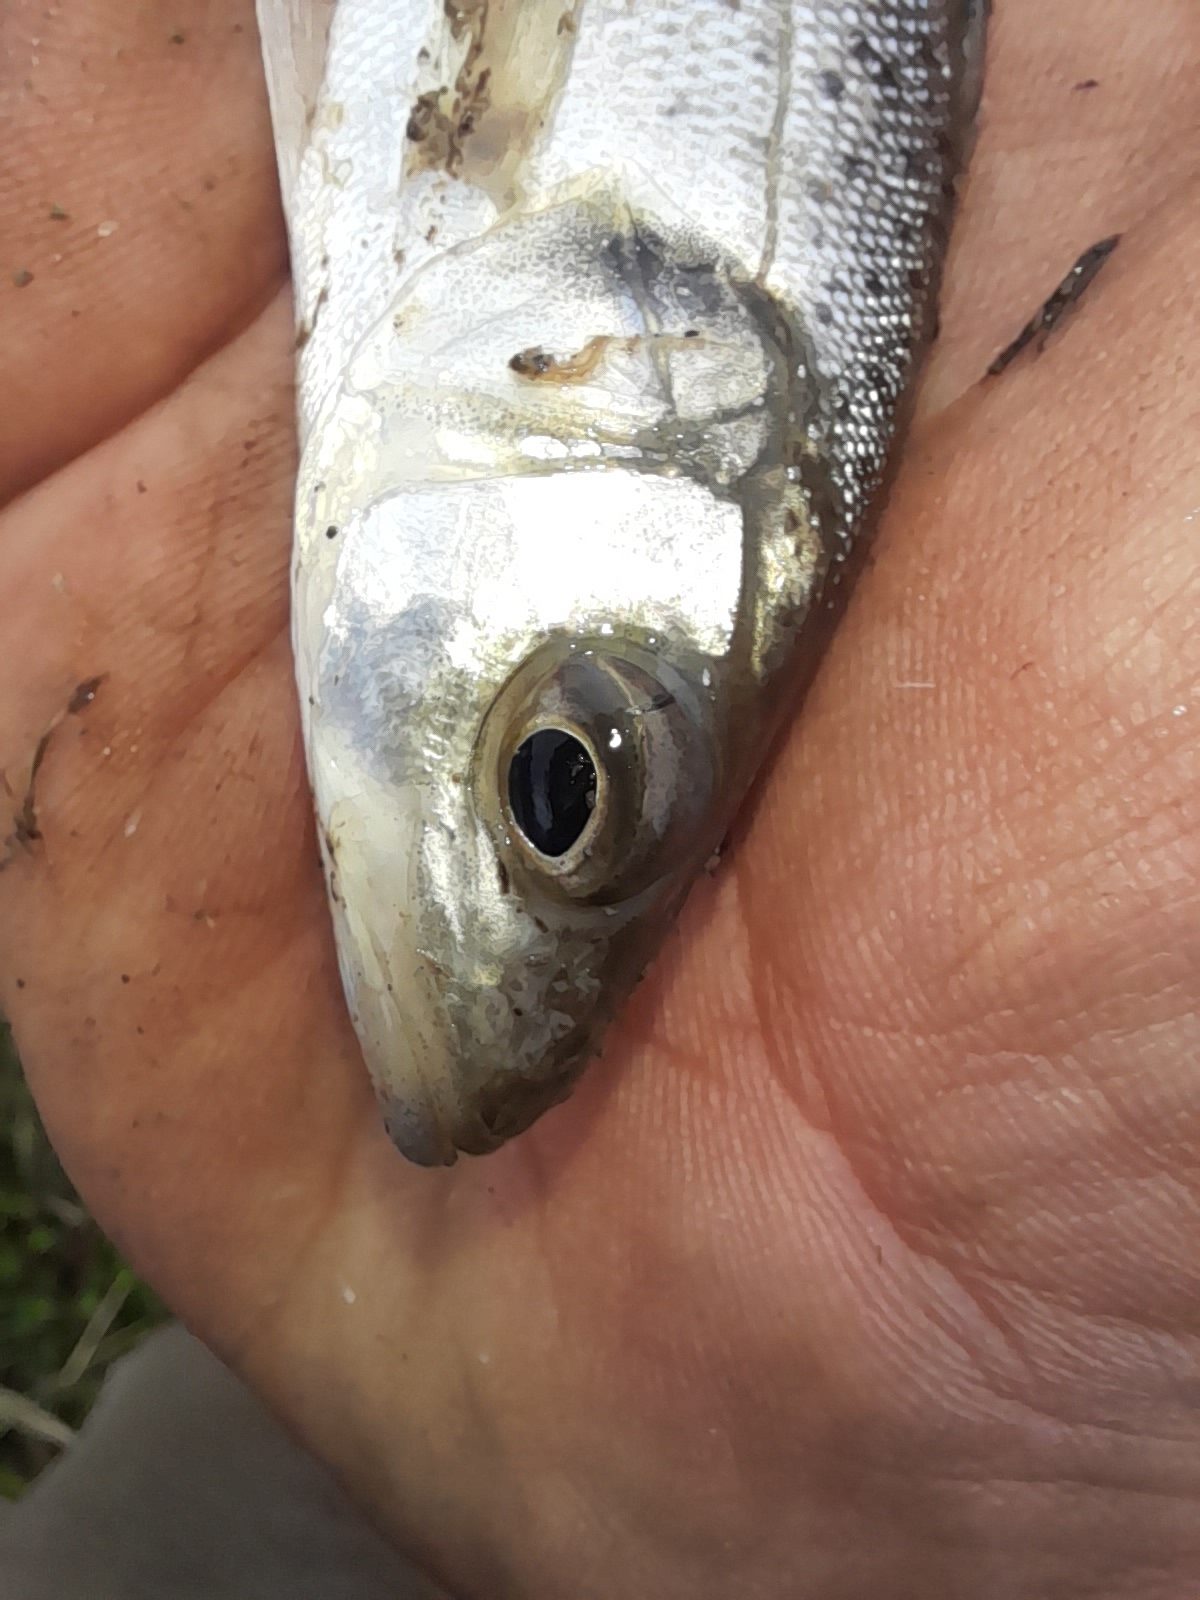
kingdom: Animalia
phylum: Chordata
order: Perciformes
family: Moronidae
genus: Dicentrarchus
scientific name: Dicentrarchus labrax
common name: European seabass
